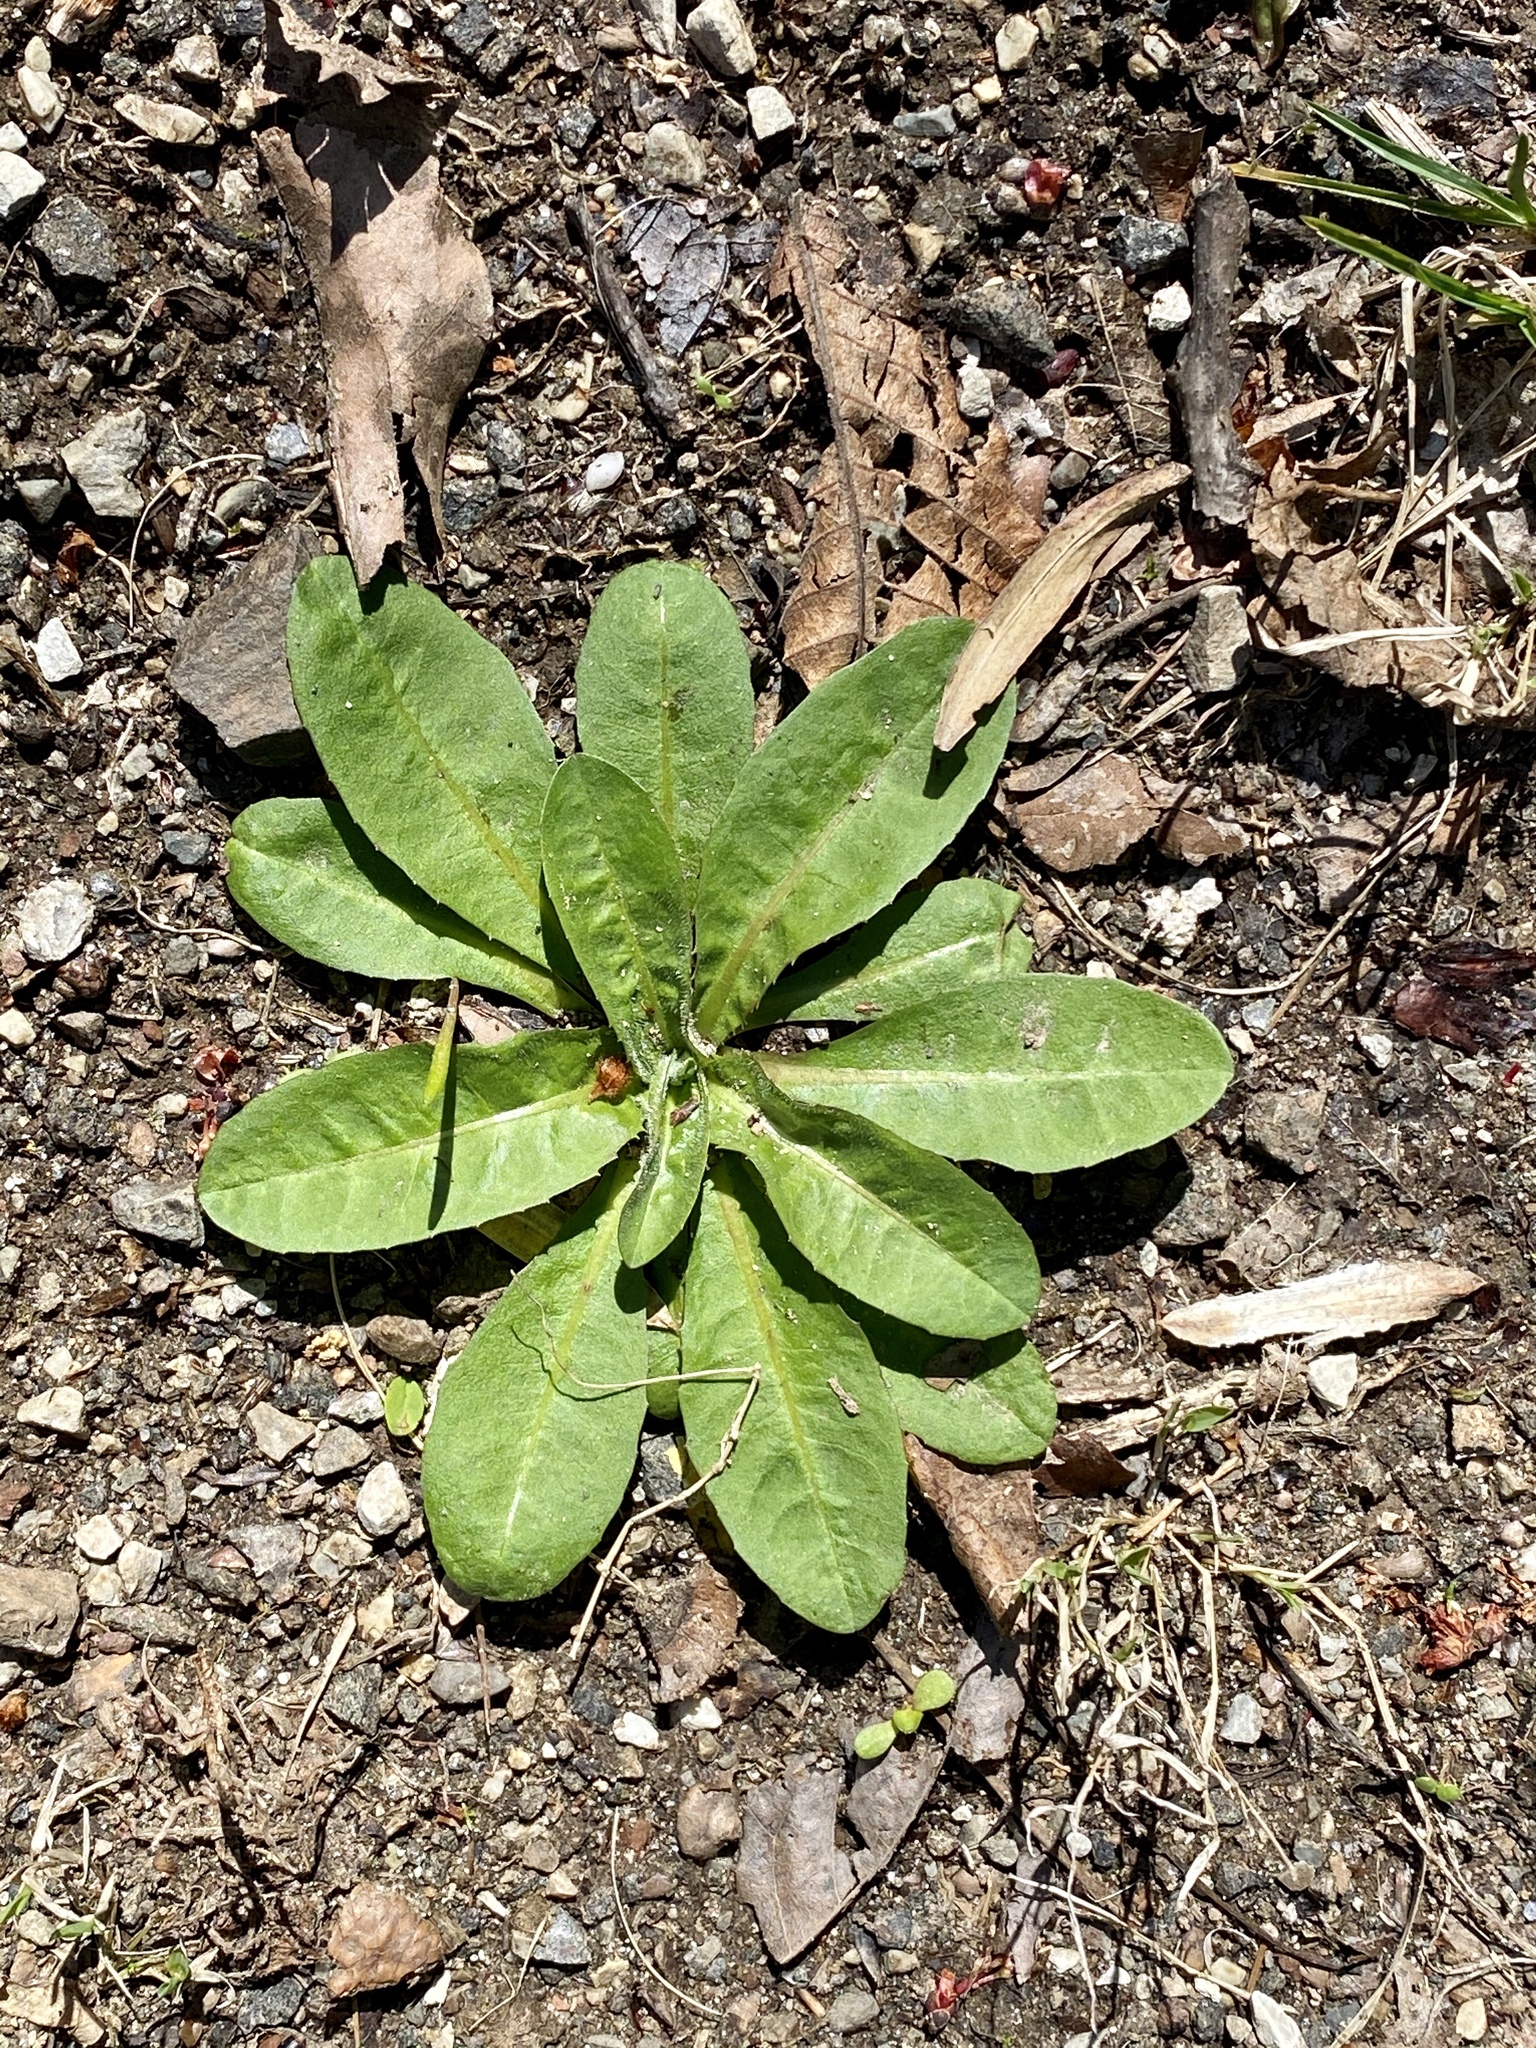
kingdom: Plantae
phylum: Tracheophyta
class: Magnoliopsida
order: Asterales
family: Asteraceae
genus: Cichorium
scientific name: Cichorium intybus
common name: Chicory
